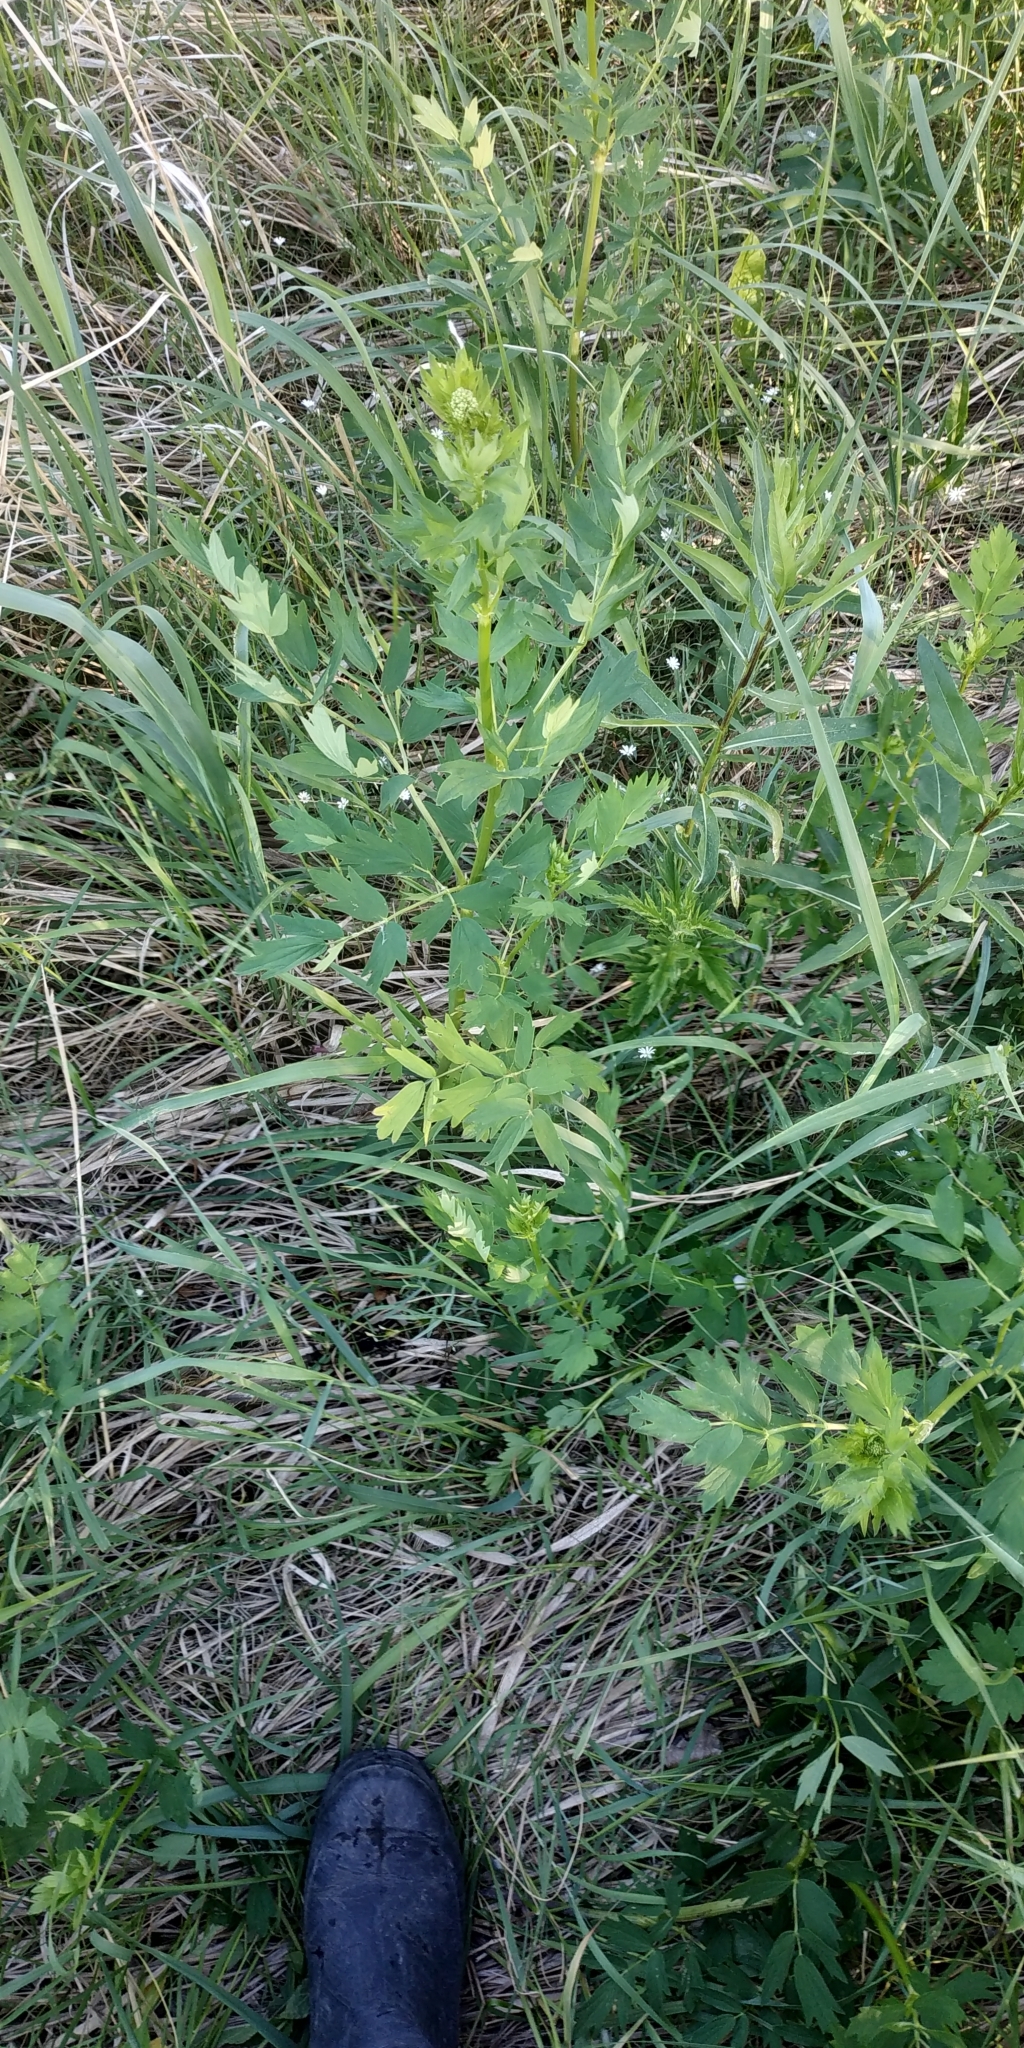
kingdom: Plantae
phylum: Tracheophyta
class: Magnoliopsida
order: Ranunculales
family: Ranunculaceae
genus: Thalictrum
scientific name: Thalictrum flavum
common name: Common meadow-rue
